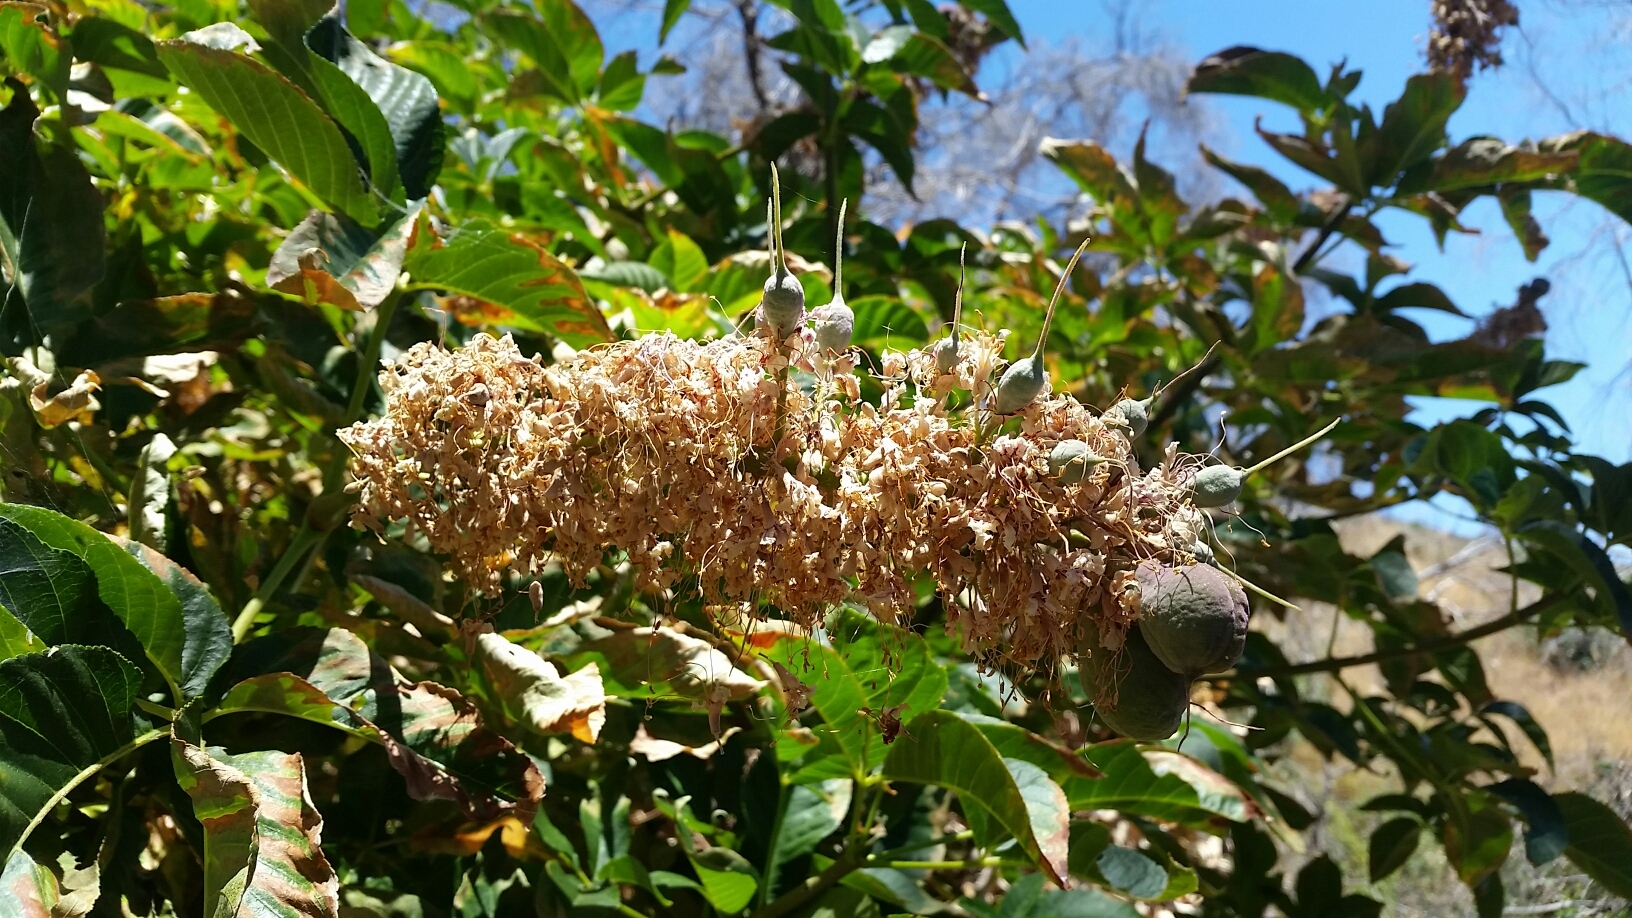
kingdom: Plantae
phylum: Tracheophyta
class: Magnoliopsida
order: Sapindales
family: Sapindaceae
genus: Aesculus
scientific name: Aesculus californica
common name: California buckeye
